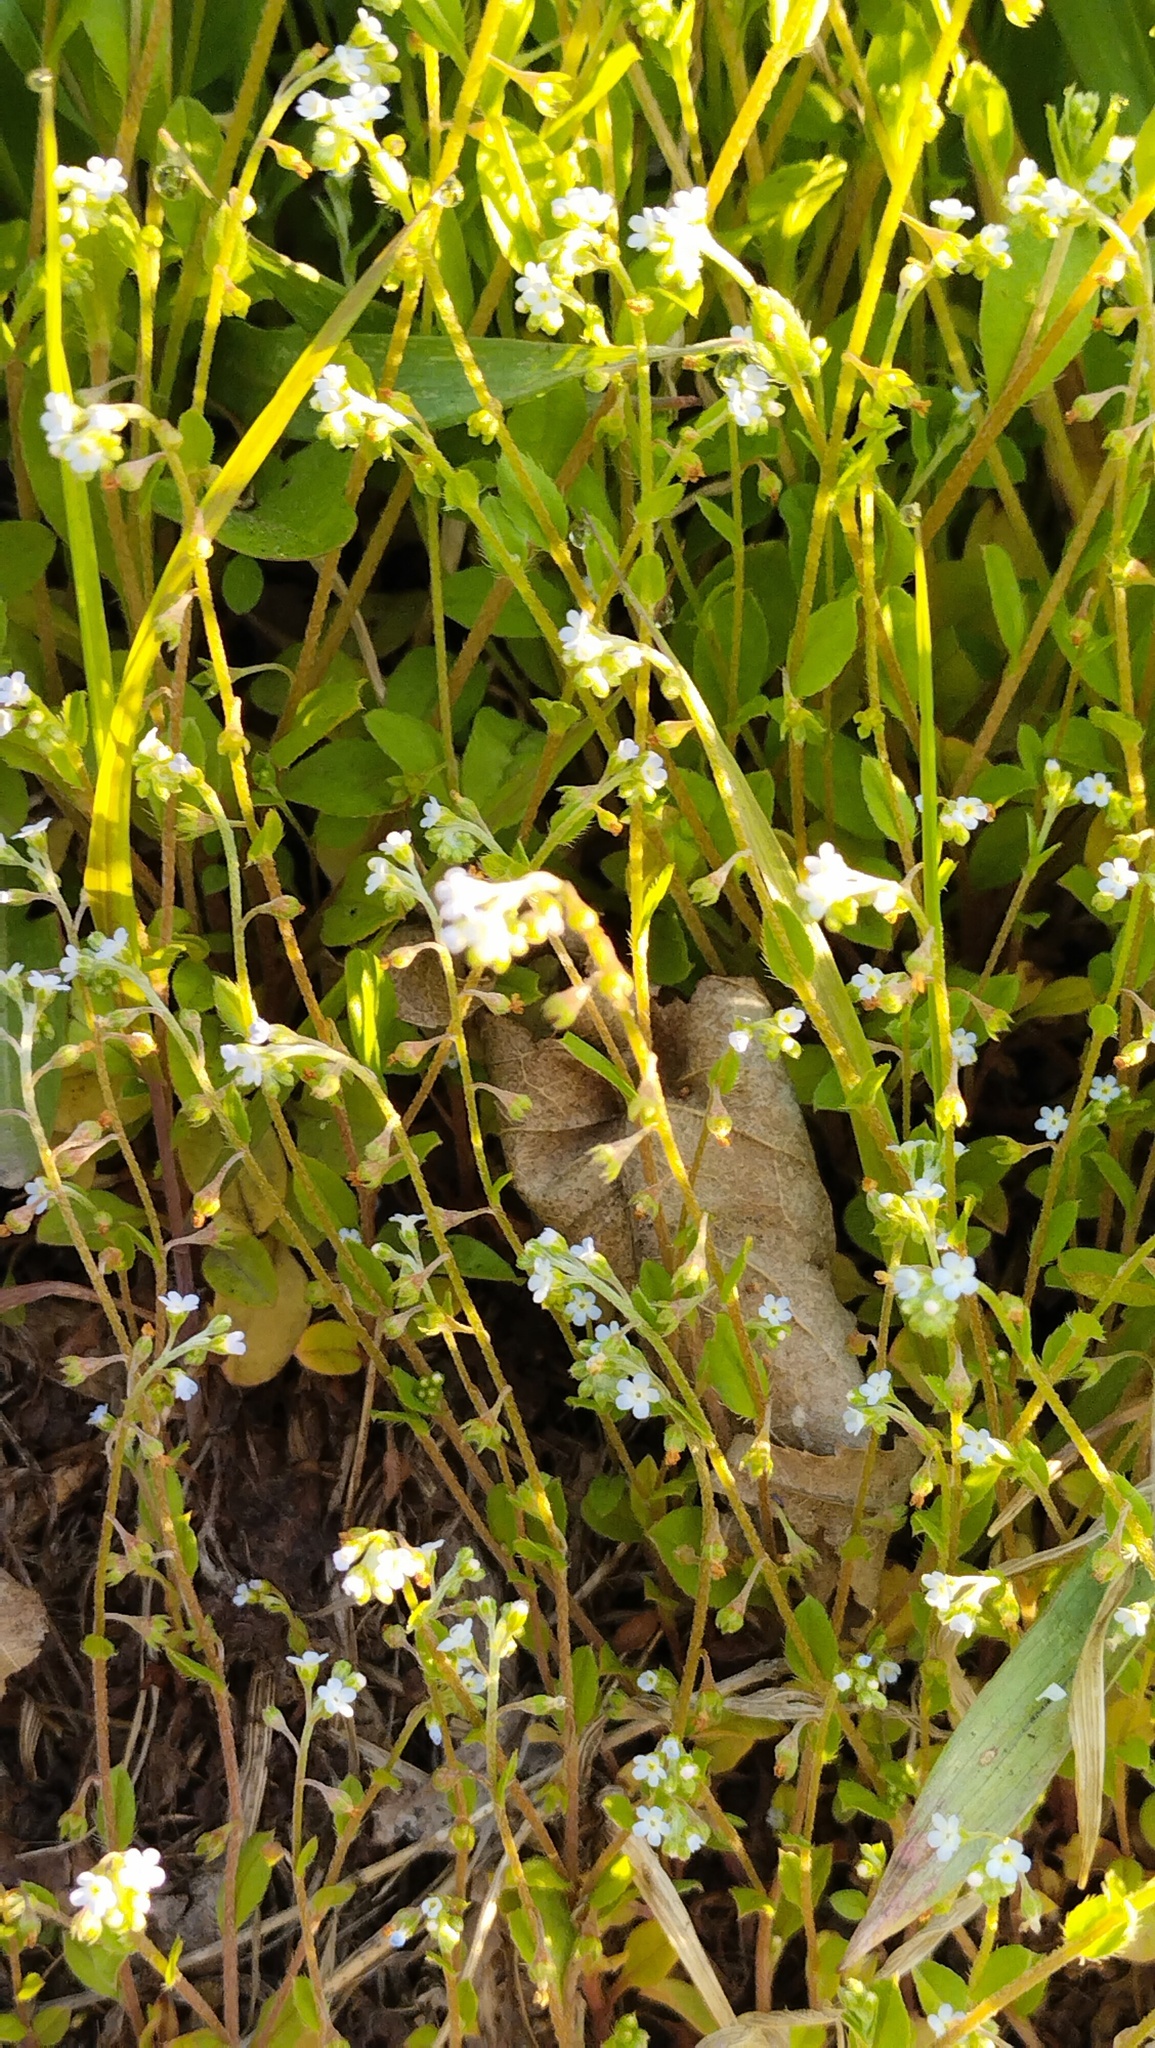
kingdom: Plantae
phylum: Tracheophyta
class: Magnoliopsida
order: Boraginales
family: Boraginaceae
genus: Trigonotis
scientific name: Trigonotis peduncularis
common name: Cucumber herb
